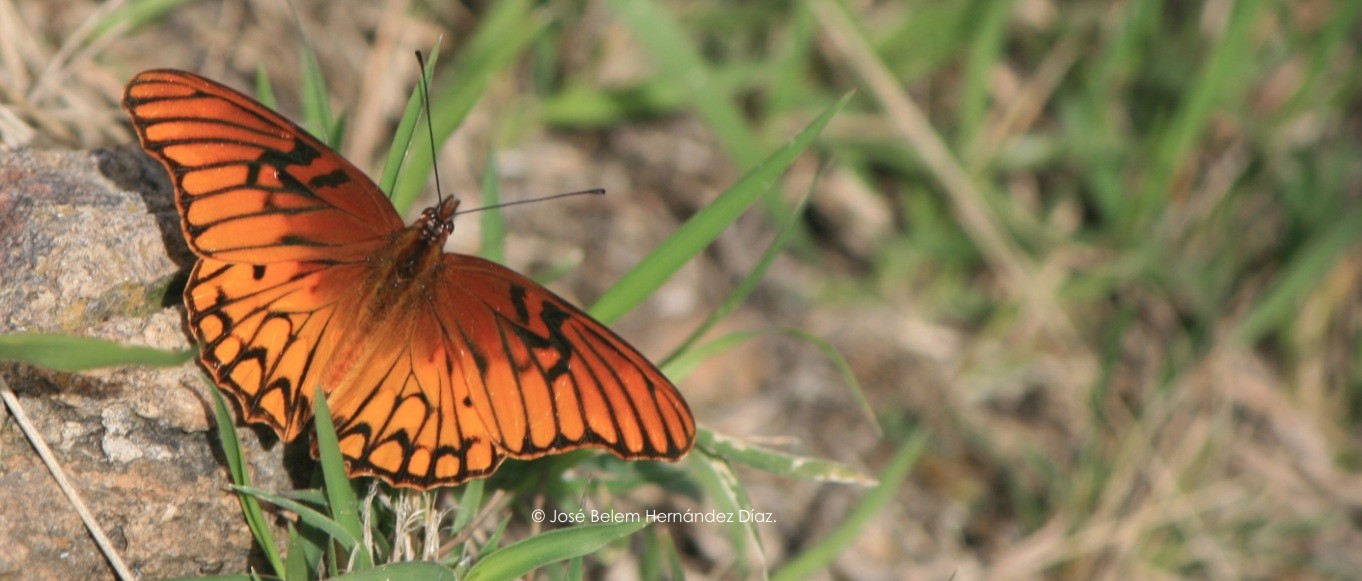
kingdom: Animalia
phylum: Arthropoda
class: Insecta
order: Lepidoptera
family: Nymphalidae
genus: Dione
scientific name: Dione moneta
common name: Mexican silverspot
